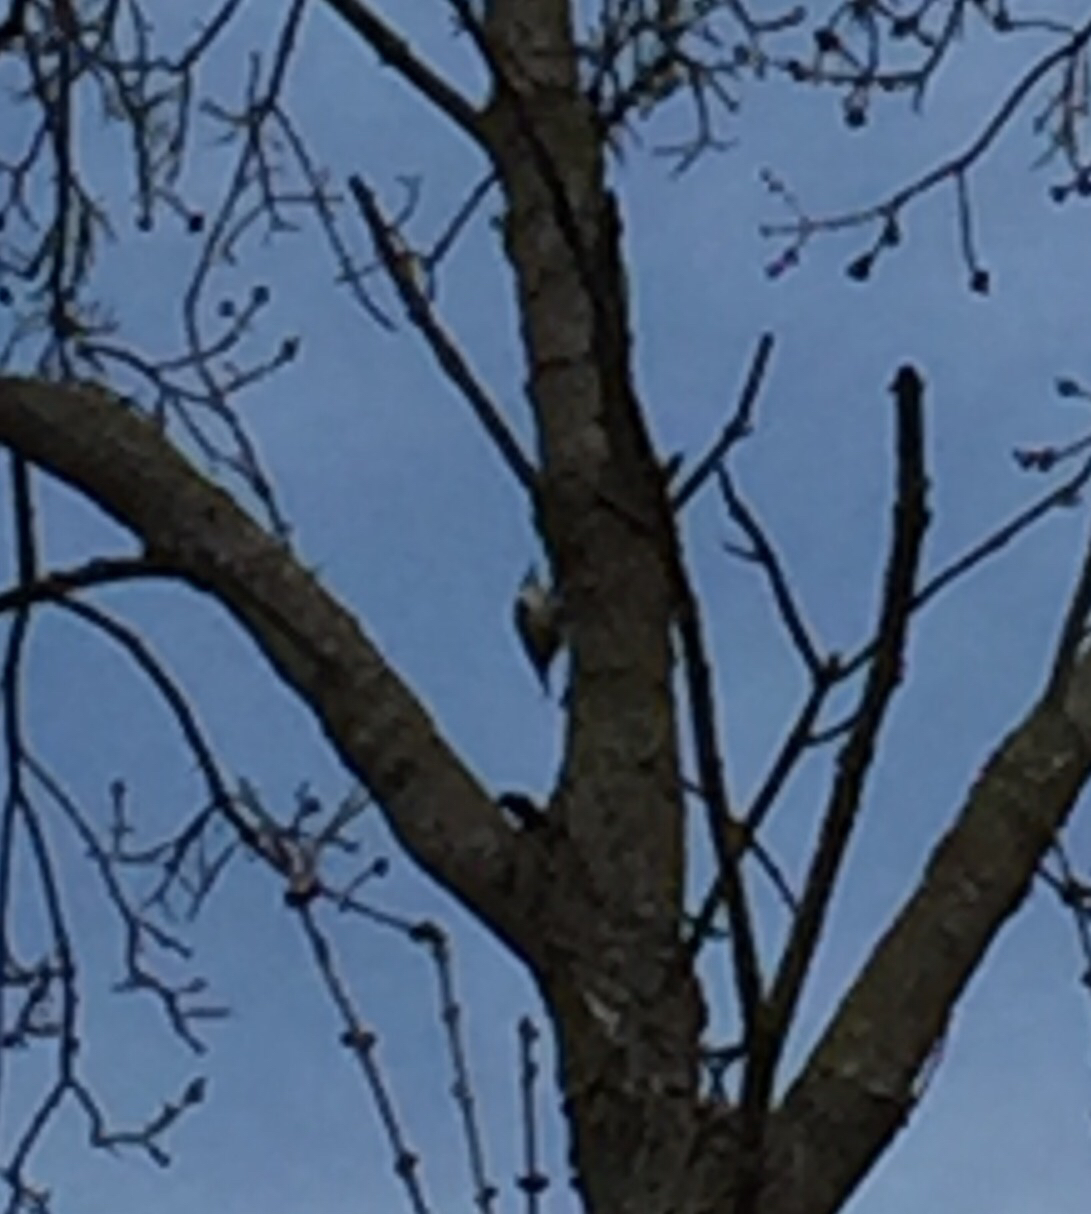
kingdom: Animalia
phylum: Chordata
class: Aves
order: Passeriformes
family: Sittidae
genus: Sitta
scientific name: Sitta carolinensis
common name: White-breasted nuthatch
